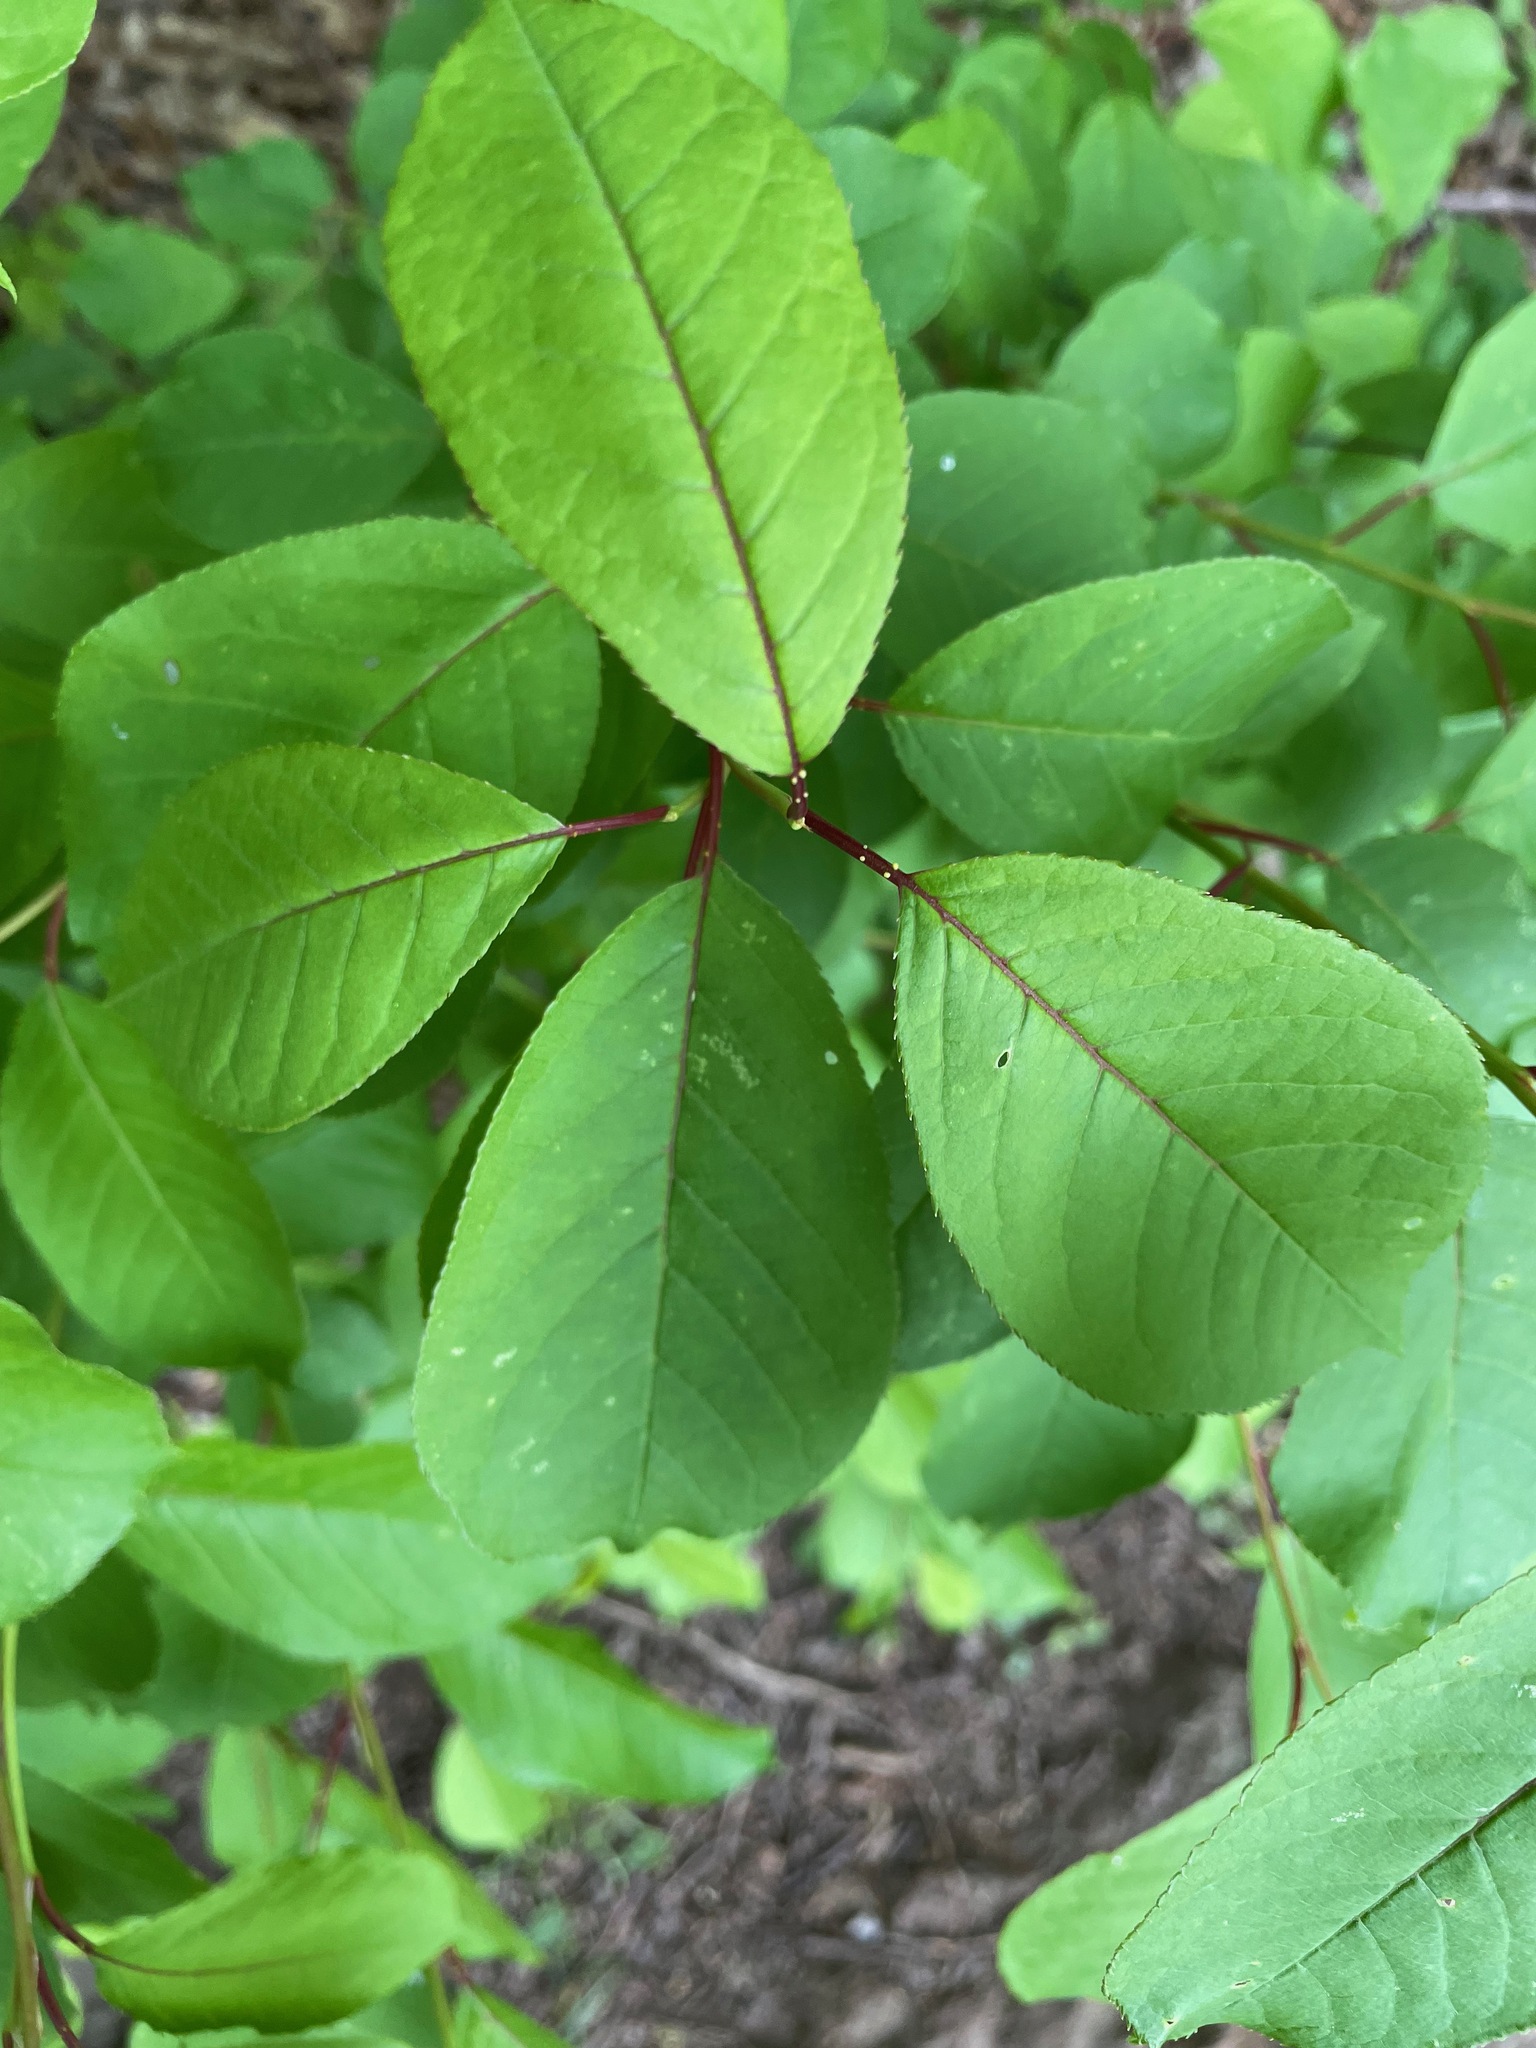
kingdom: Plantae
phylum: Tracheophyta
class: Magnoliopsida
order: Rosales
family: Rosaceae
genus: Prunus
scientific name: Prunus virginiana
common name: Chokecherry
